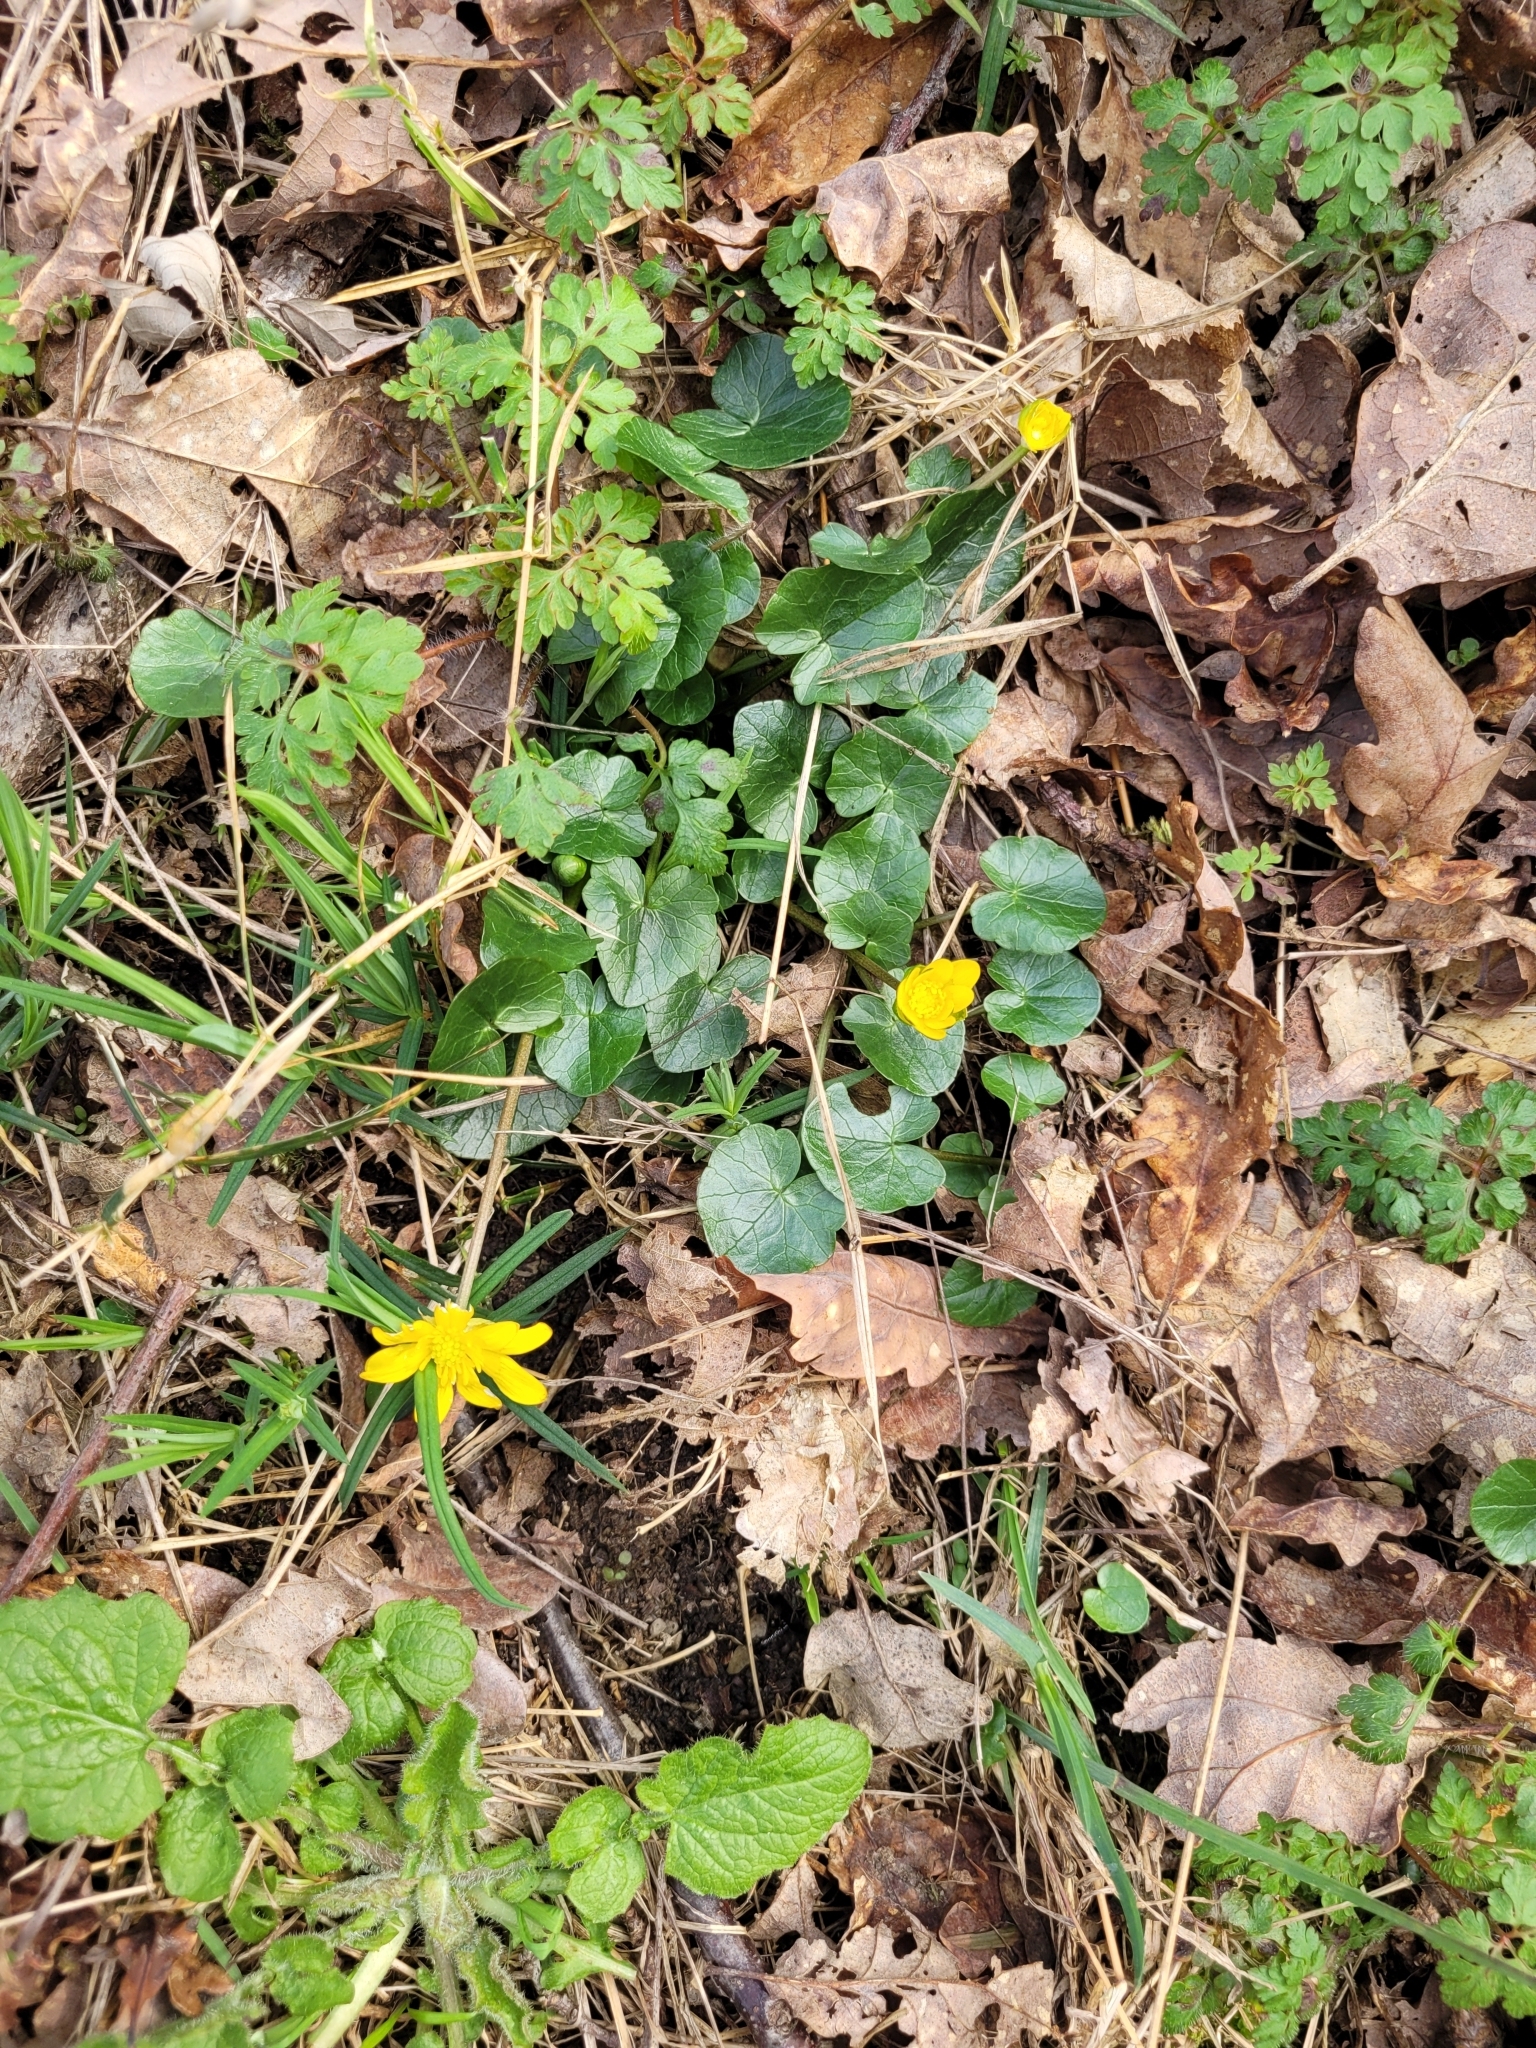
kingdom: Plantae
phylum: Tracheophyta
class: Magnoliopsida
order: Ranunculales
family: Ranunculaceae
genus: Ficaria
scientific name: Ficaria verna
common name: Lesser celandine
